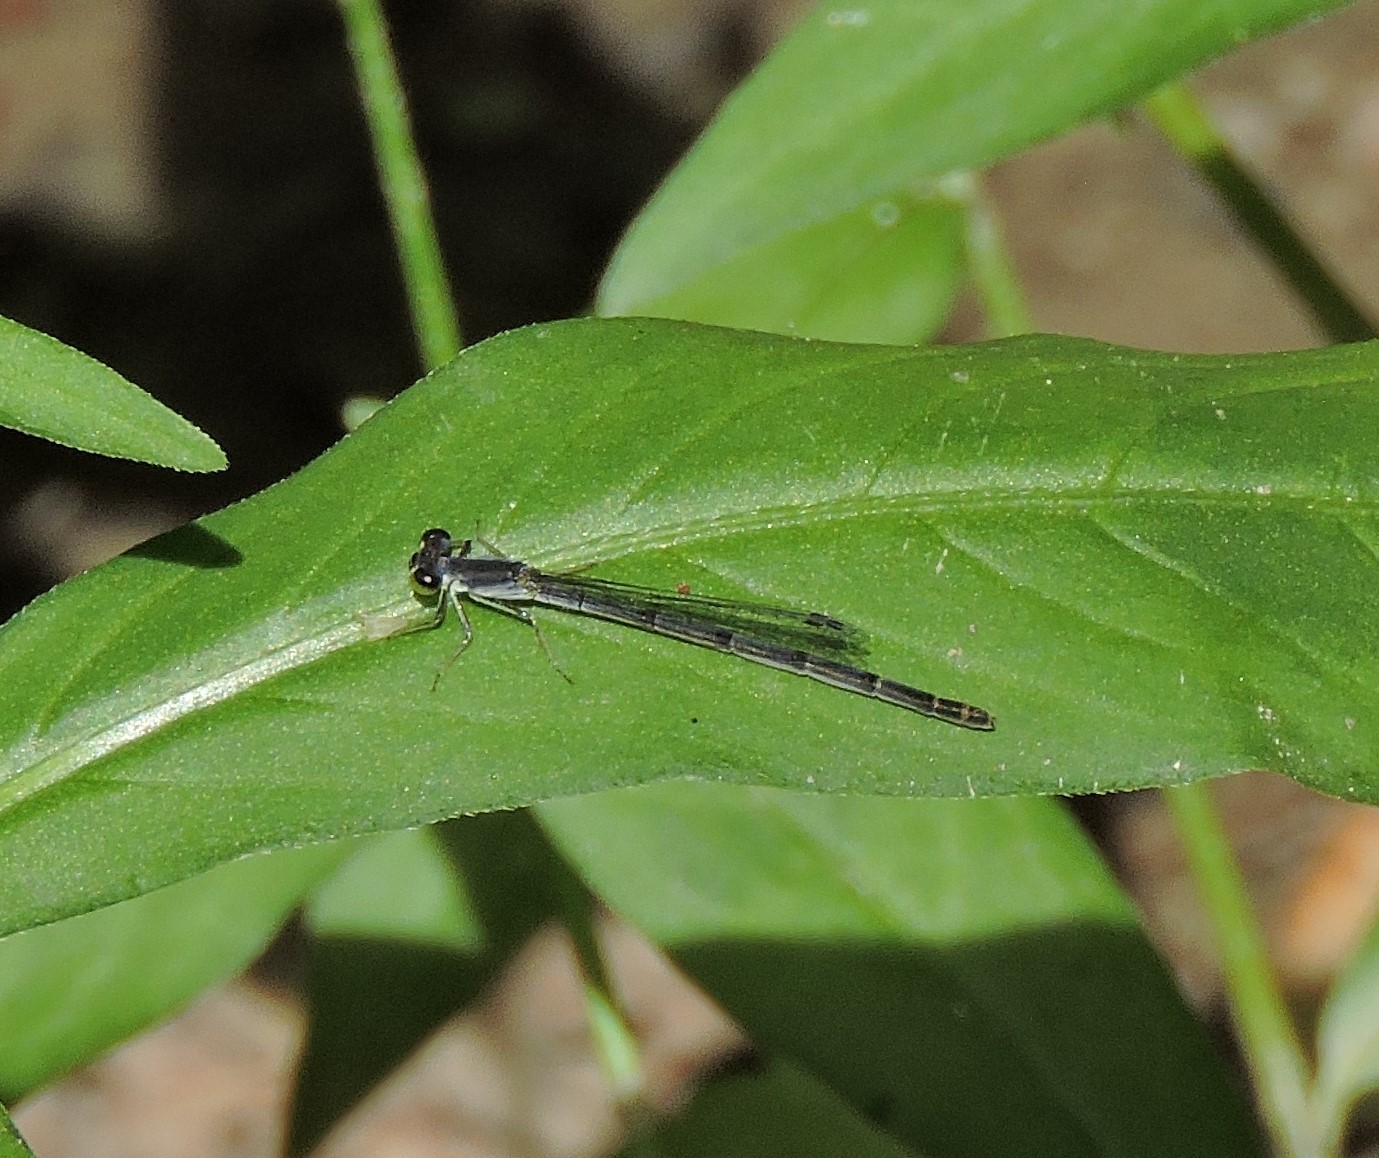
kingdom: Animalia
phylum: Arthropoda
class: Insecta
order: Odonata
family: Coenagrionidae
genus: Ischnura
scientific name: Ischnura verticalis
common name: Eastern forktail
